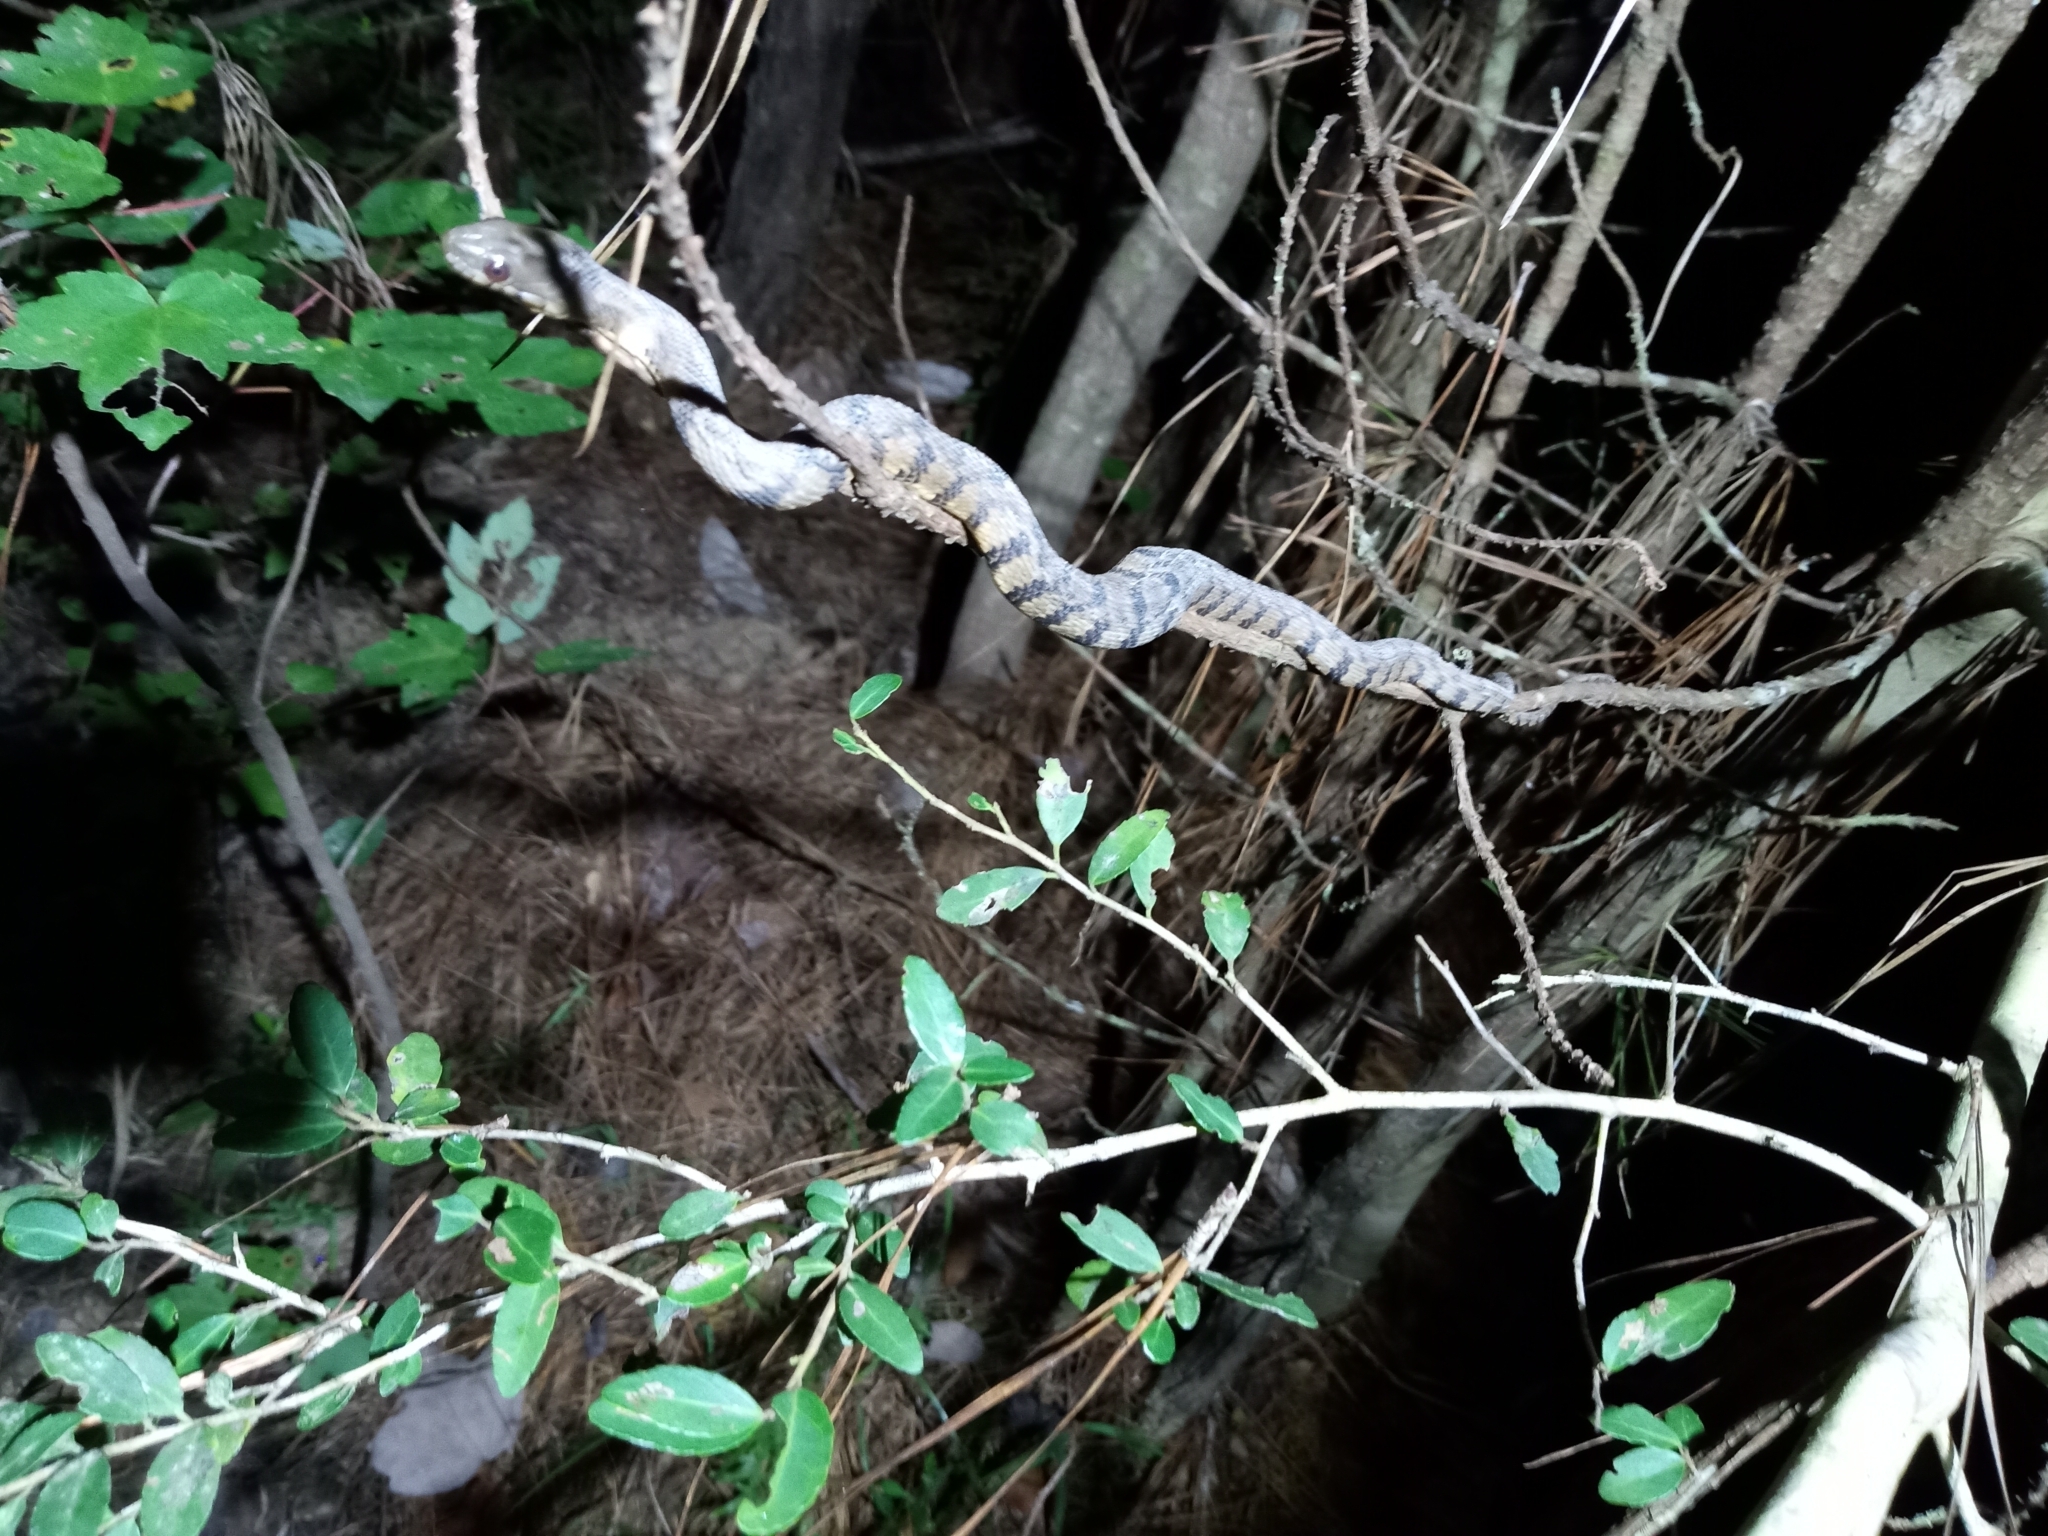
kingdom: Animalia
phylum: Chordata
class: Squamata
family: Colubridae
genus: Nerodia
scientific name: Nerodia rhombifer
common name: Diamondback water snake
